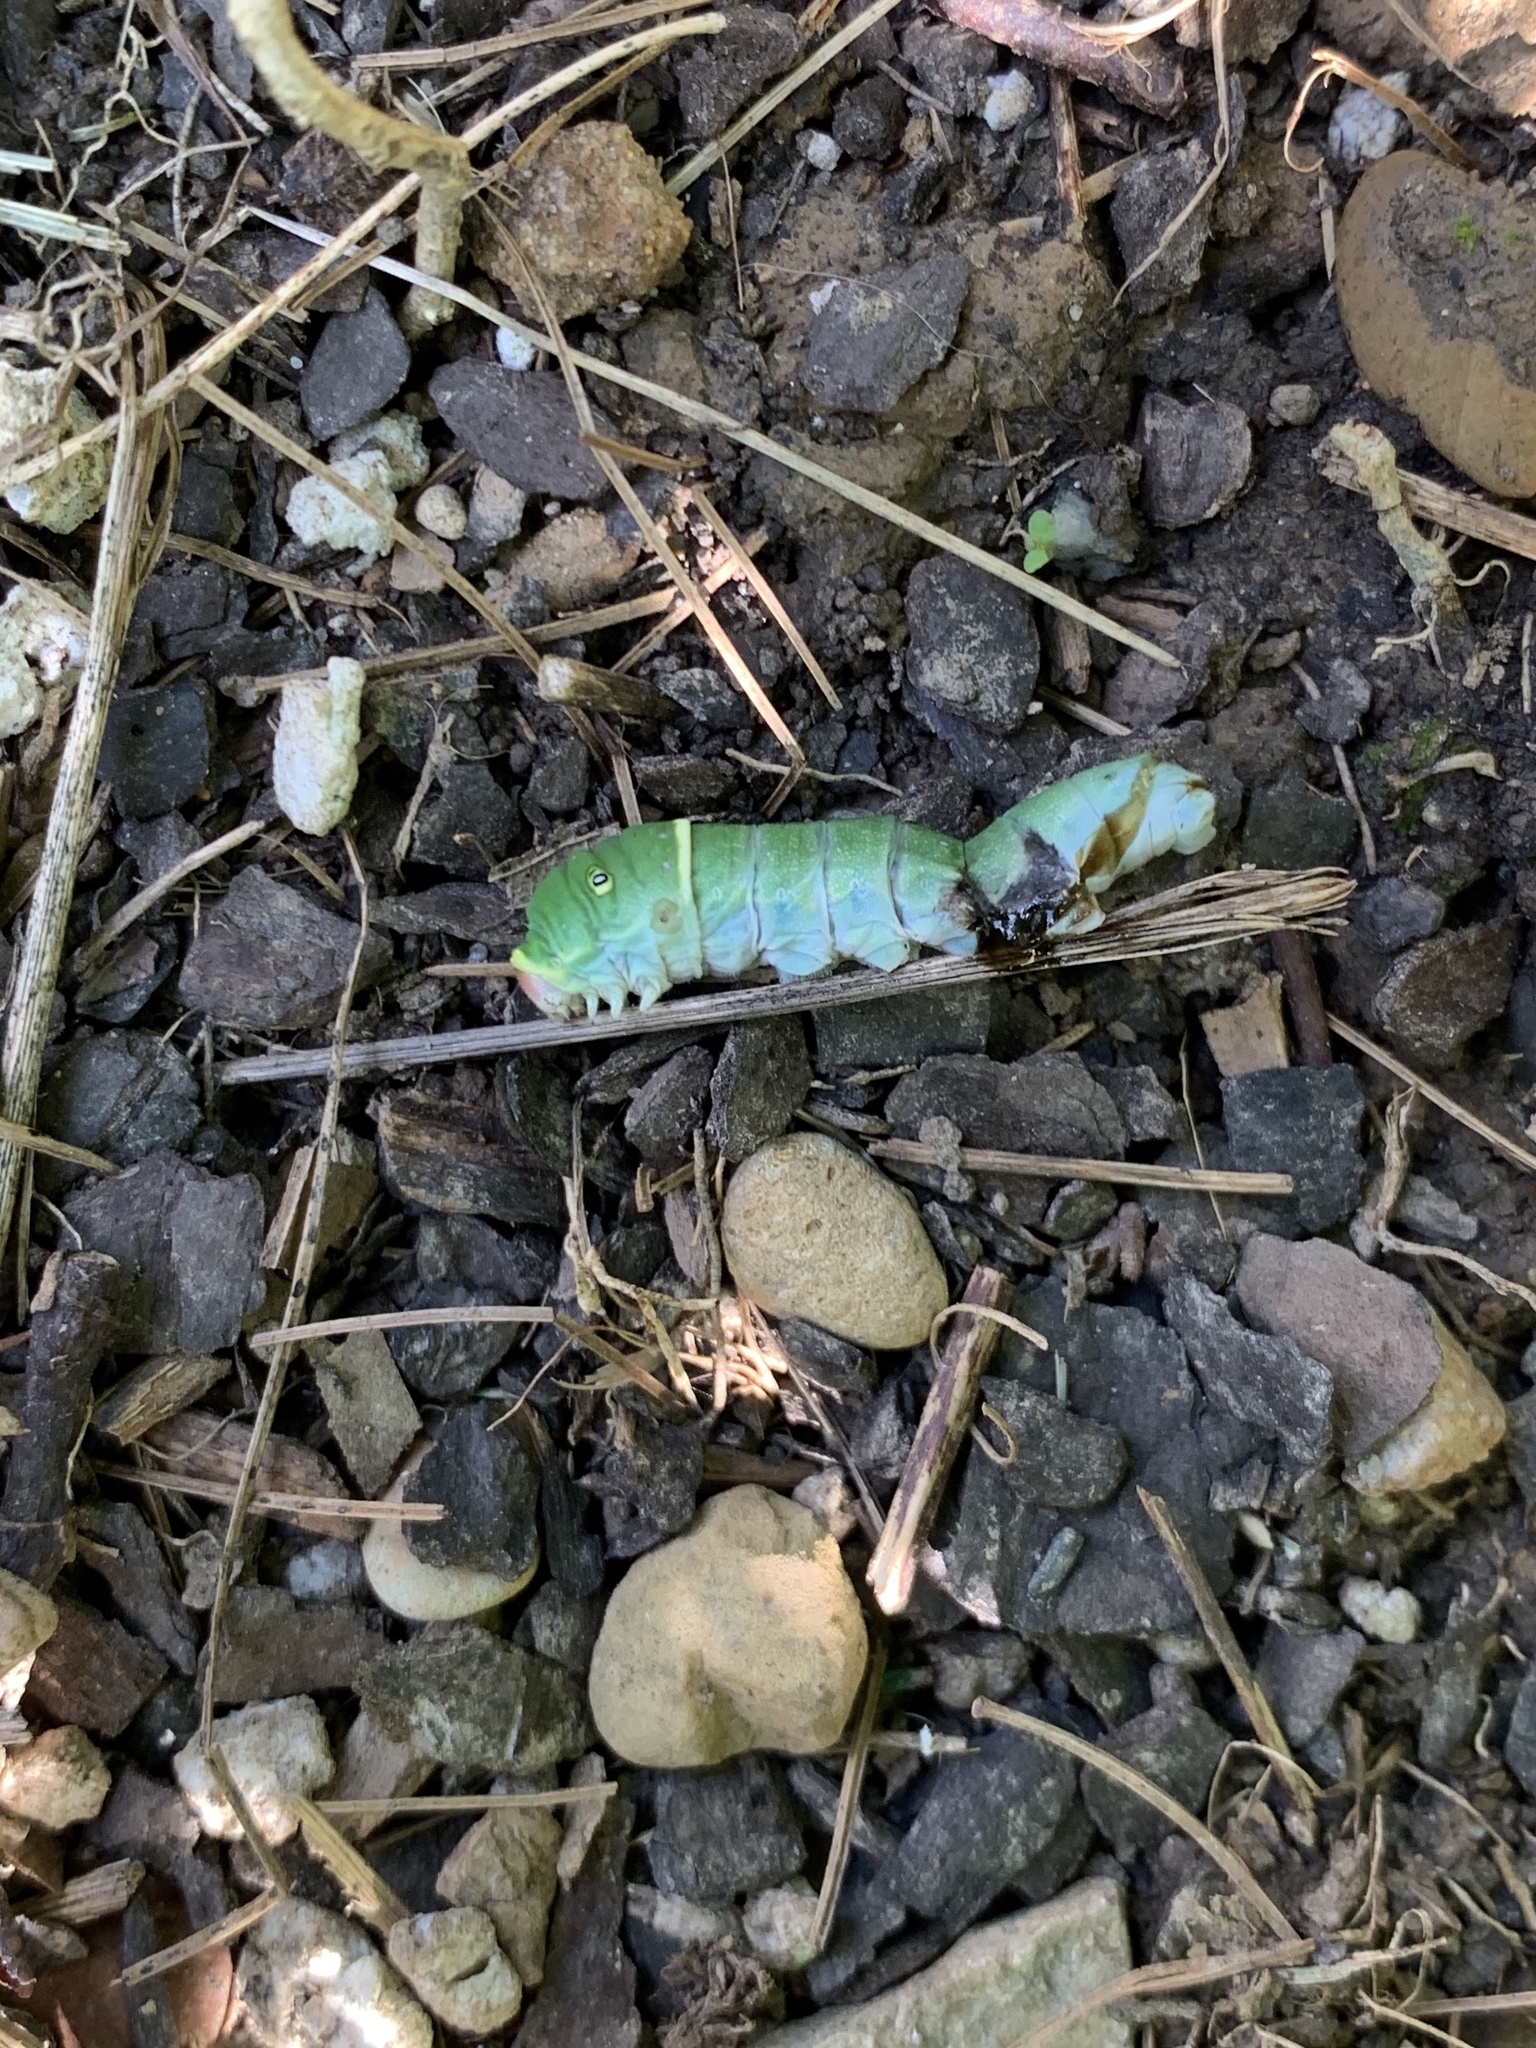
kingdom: Animalia
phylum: Arthropoda
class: Insecta
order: Lepidoptera
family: Papilionidae
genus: Papilio
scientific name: Papilio glaucus
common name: Tiger swallowtail
